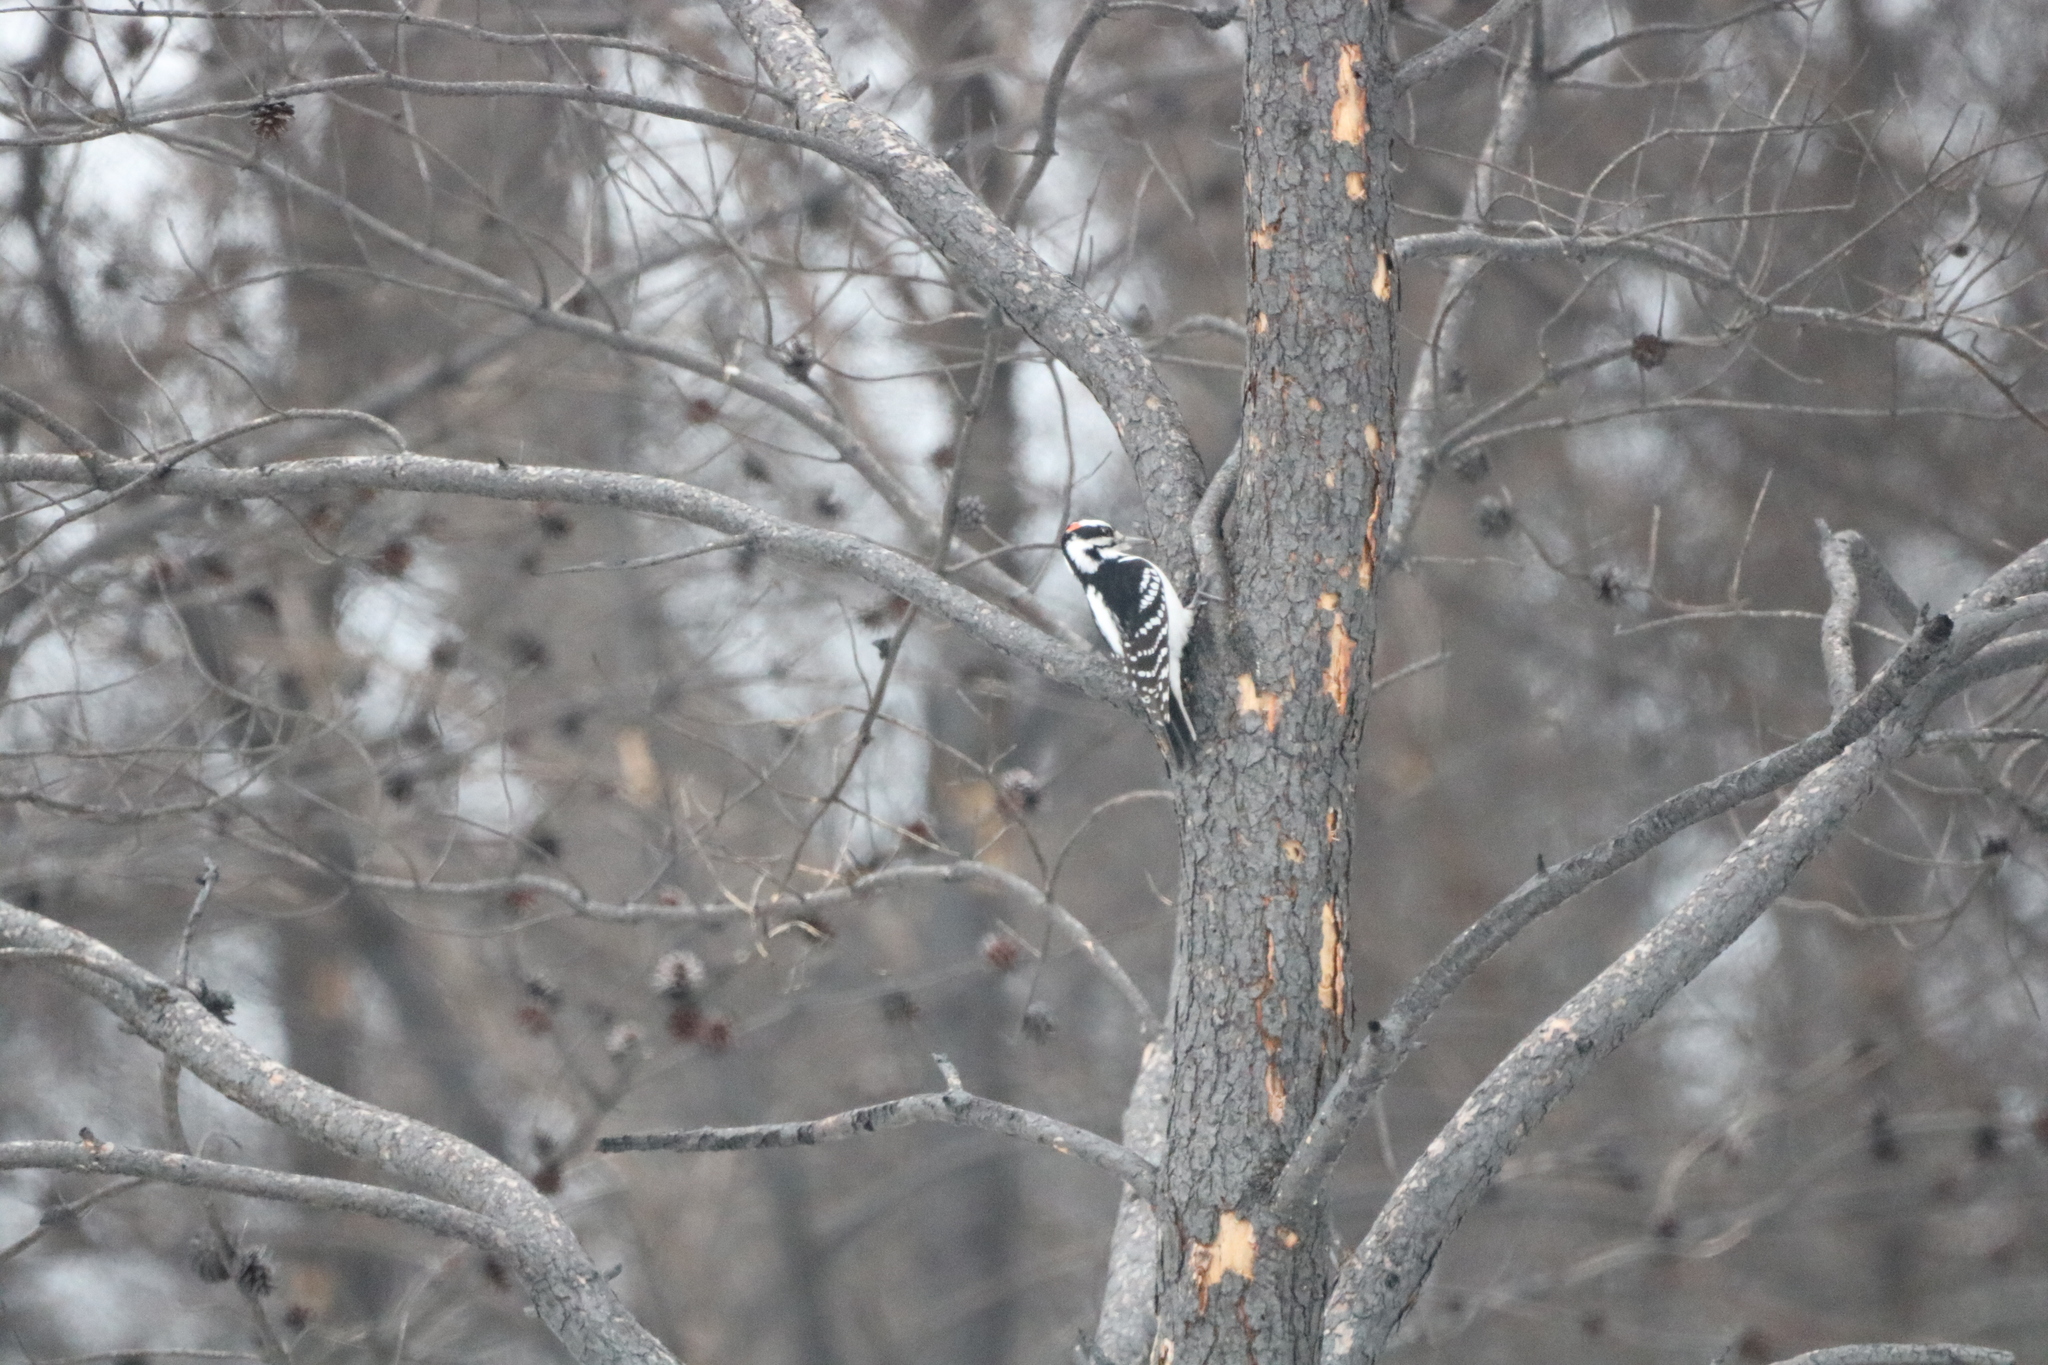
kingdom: Animalia
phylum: Chordata
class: Aves
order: Piciformes
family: Picidae
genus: Leuconotopicus
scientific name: Leuconotopicus villosus
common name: Hairy woodpecker
